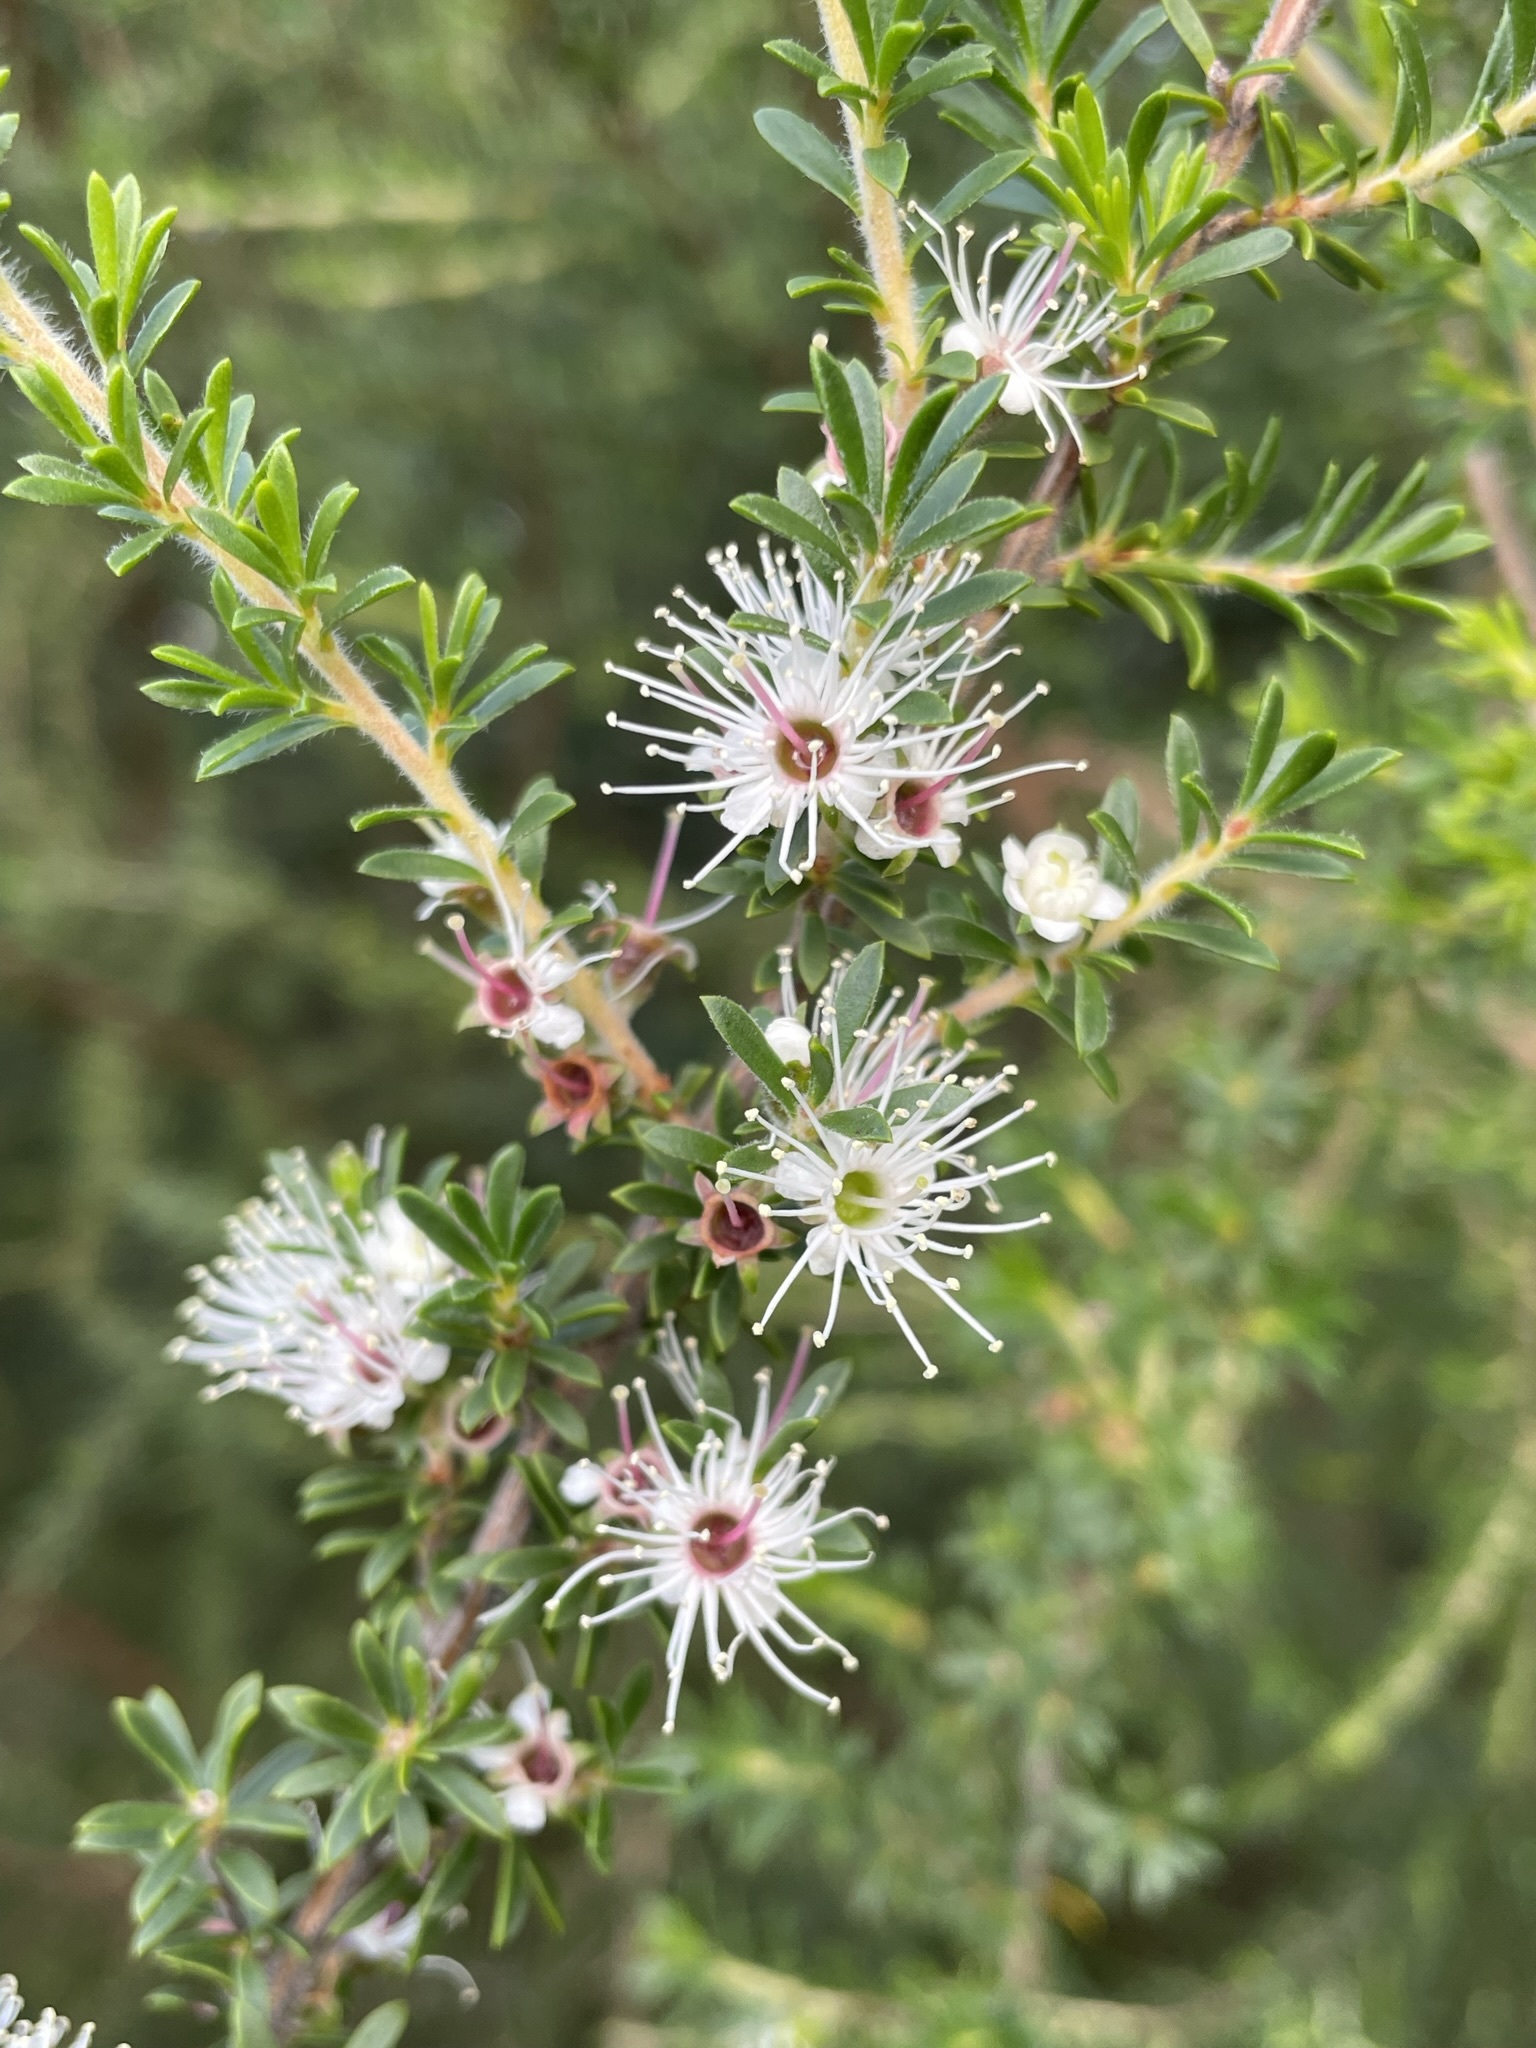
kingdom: Plantae
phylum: Tracheophyta
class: Magnoliopsida
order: Myrtales
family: Myrtaceae
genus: Kunzea
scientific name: Kunzea ambigua
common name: Tickbush
